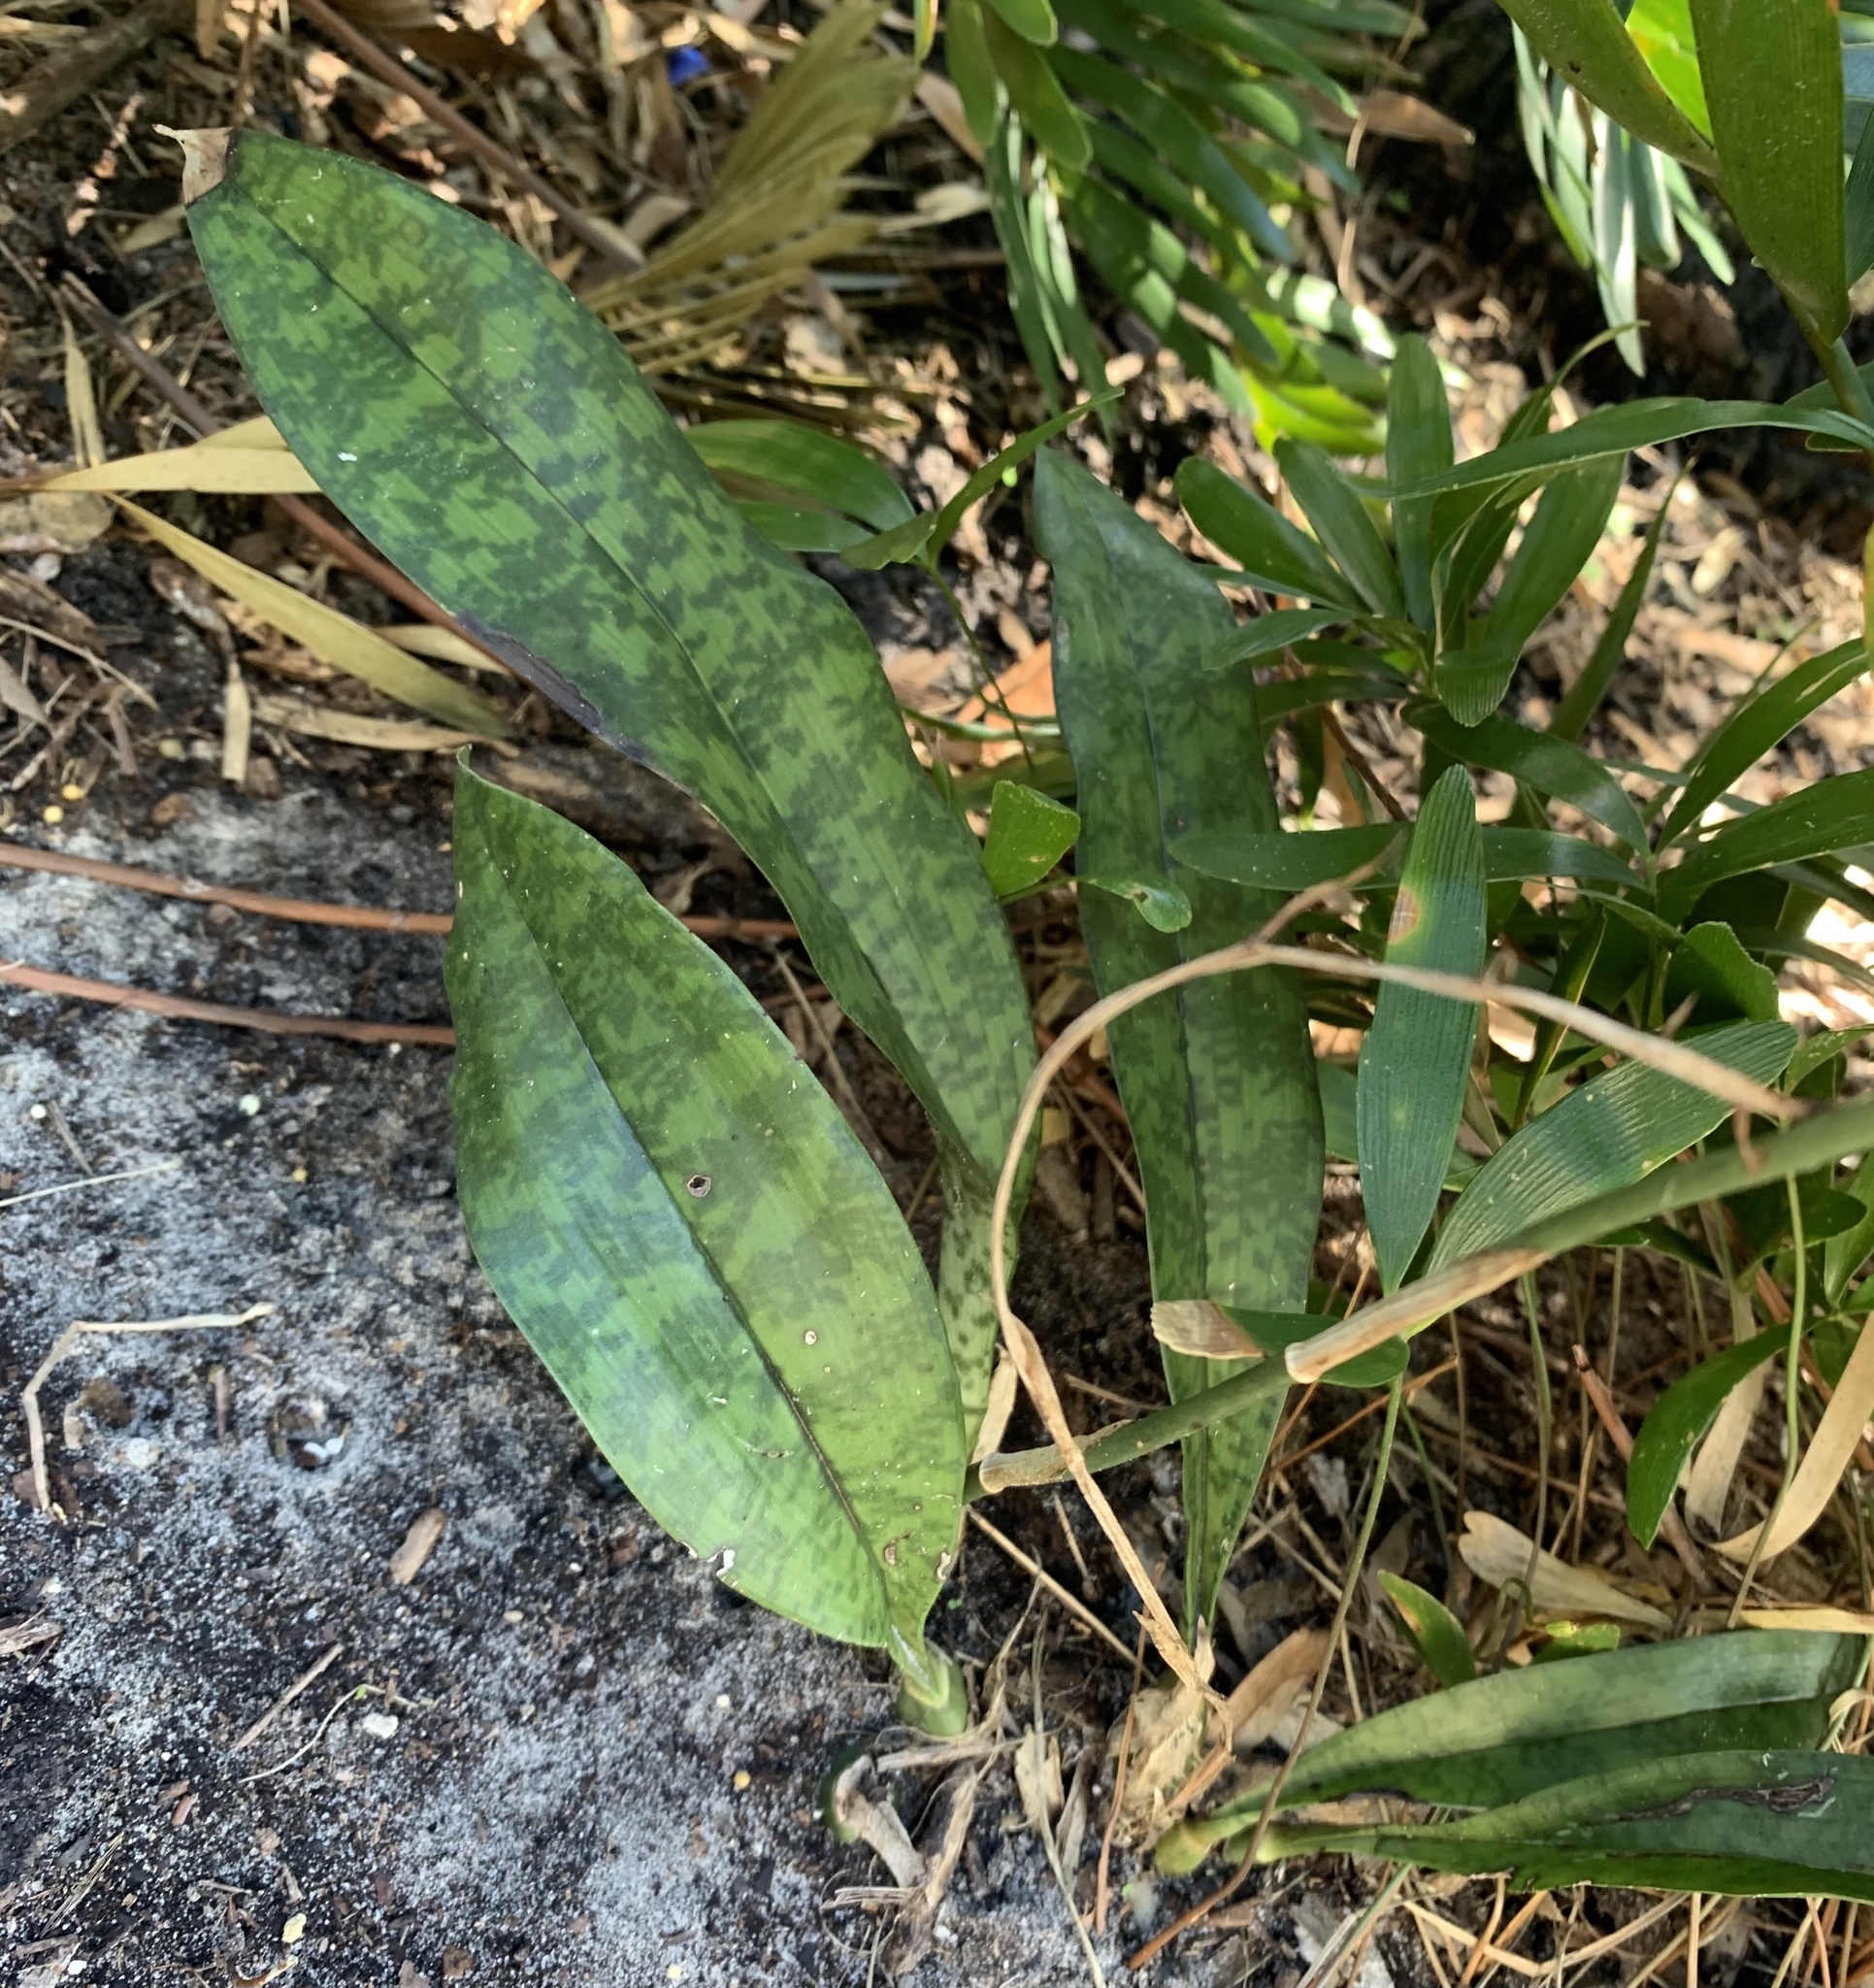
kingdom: Plantae
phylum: Tracheophyta
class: Liliopsida
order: Asparagales
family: Orchidaceae
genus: Eulophia
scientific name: Eulophia maculata
